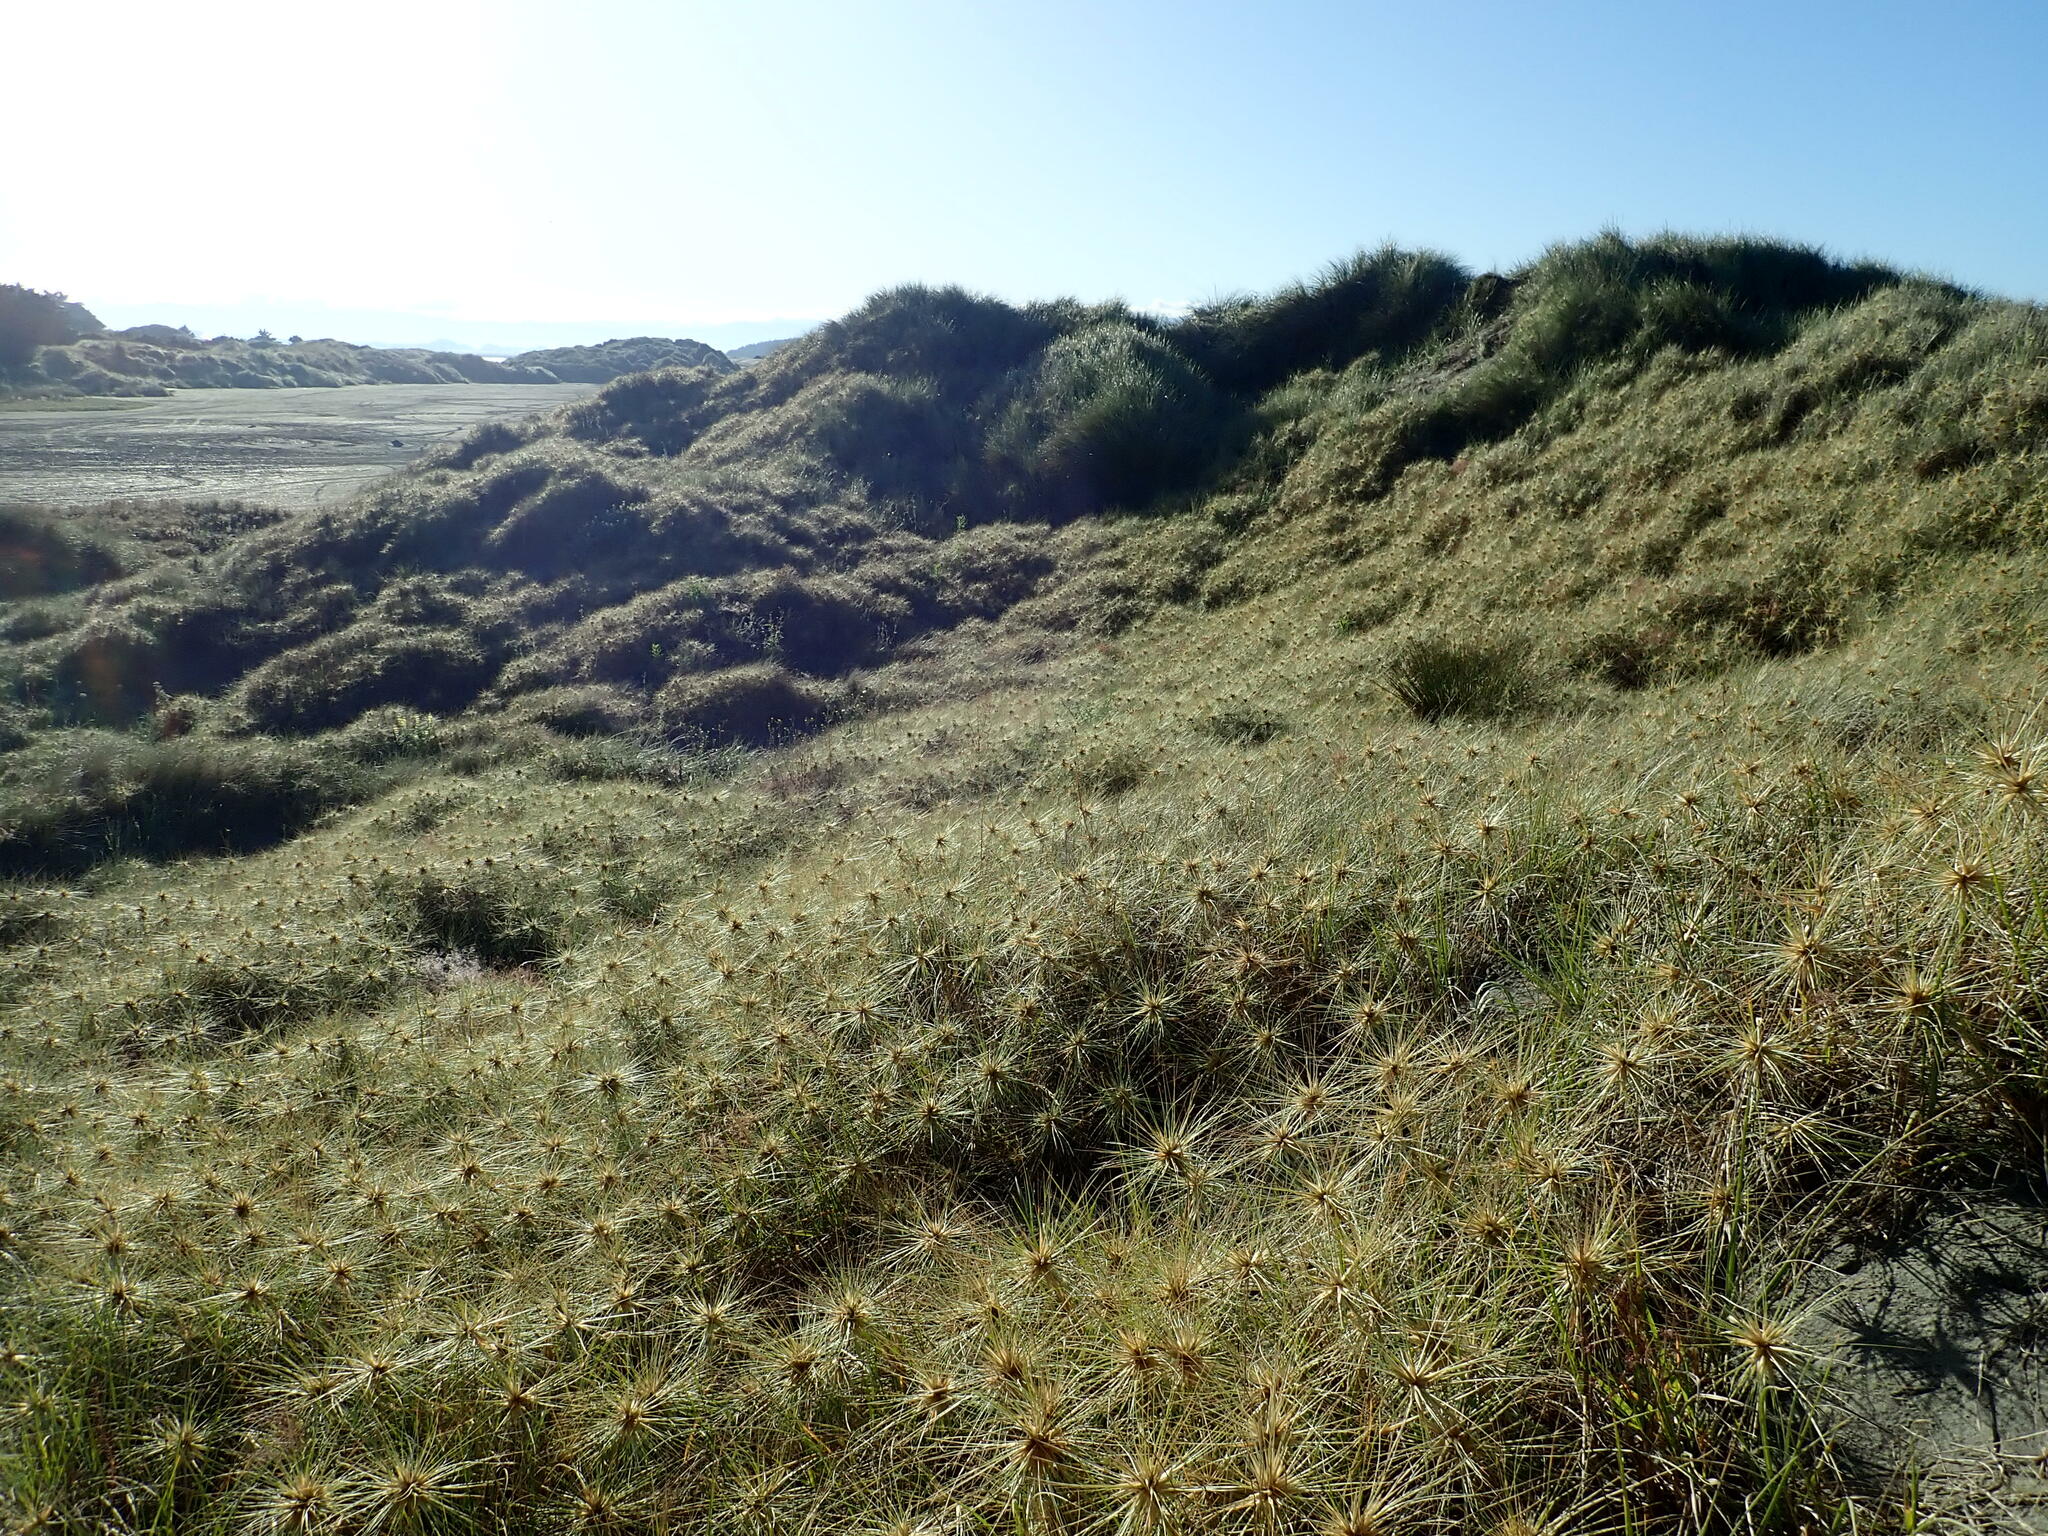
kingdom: Plantae
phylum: Tracheophyta
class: Liliopsida
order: Poales
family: Poaceae
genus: Spinifex
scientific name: Spinifex sericeus
